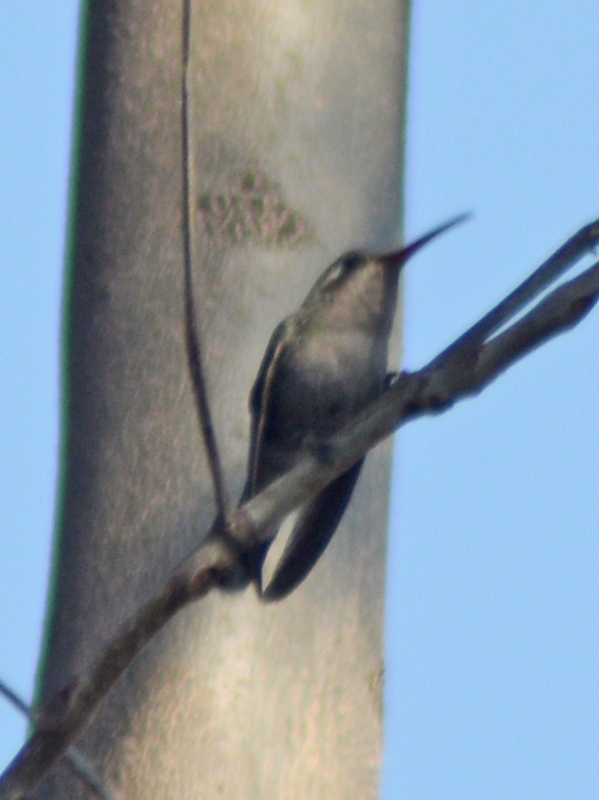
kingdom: Animalia
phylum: Chordata
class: Aves
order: Apodiformes
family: Trochilidae
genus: Cynanthus
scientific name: Cynanthus latirostris
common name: Broad-billed hummingbird
